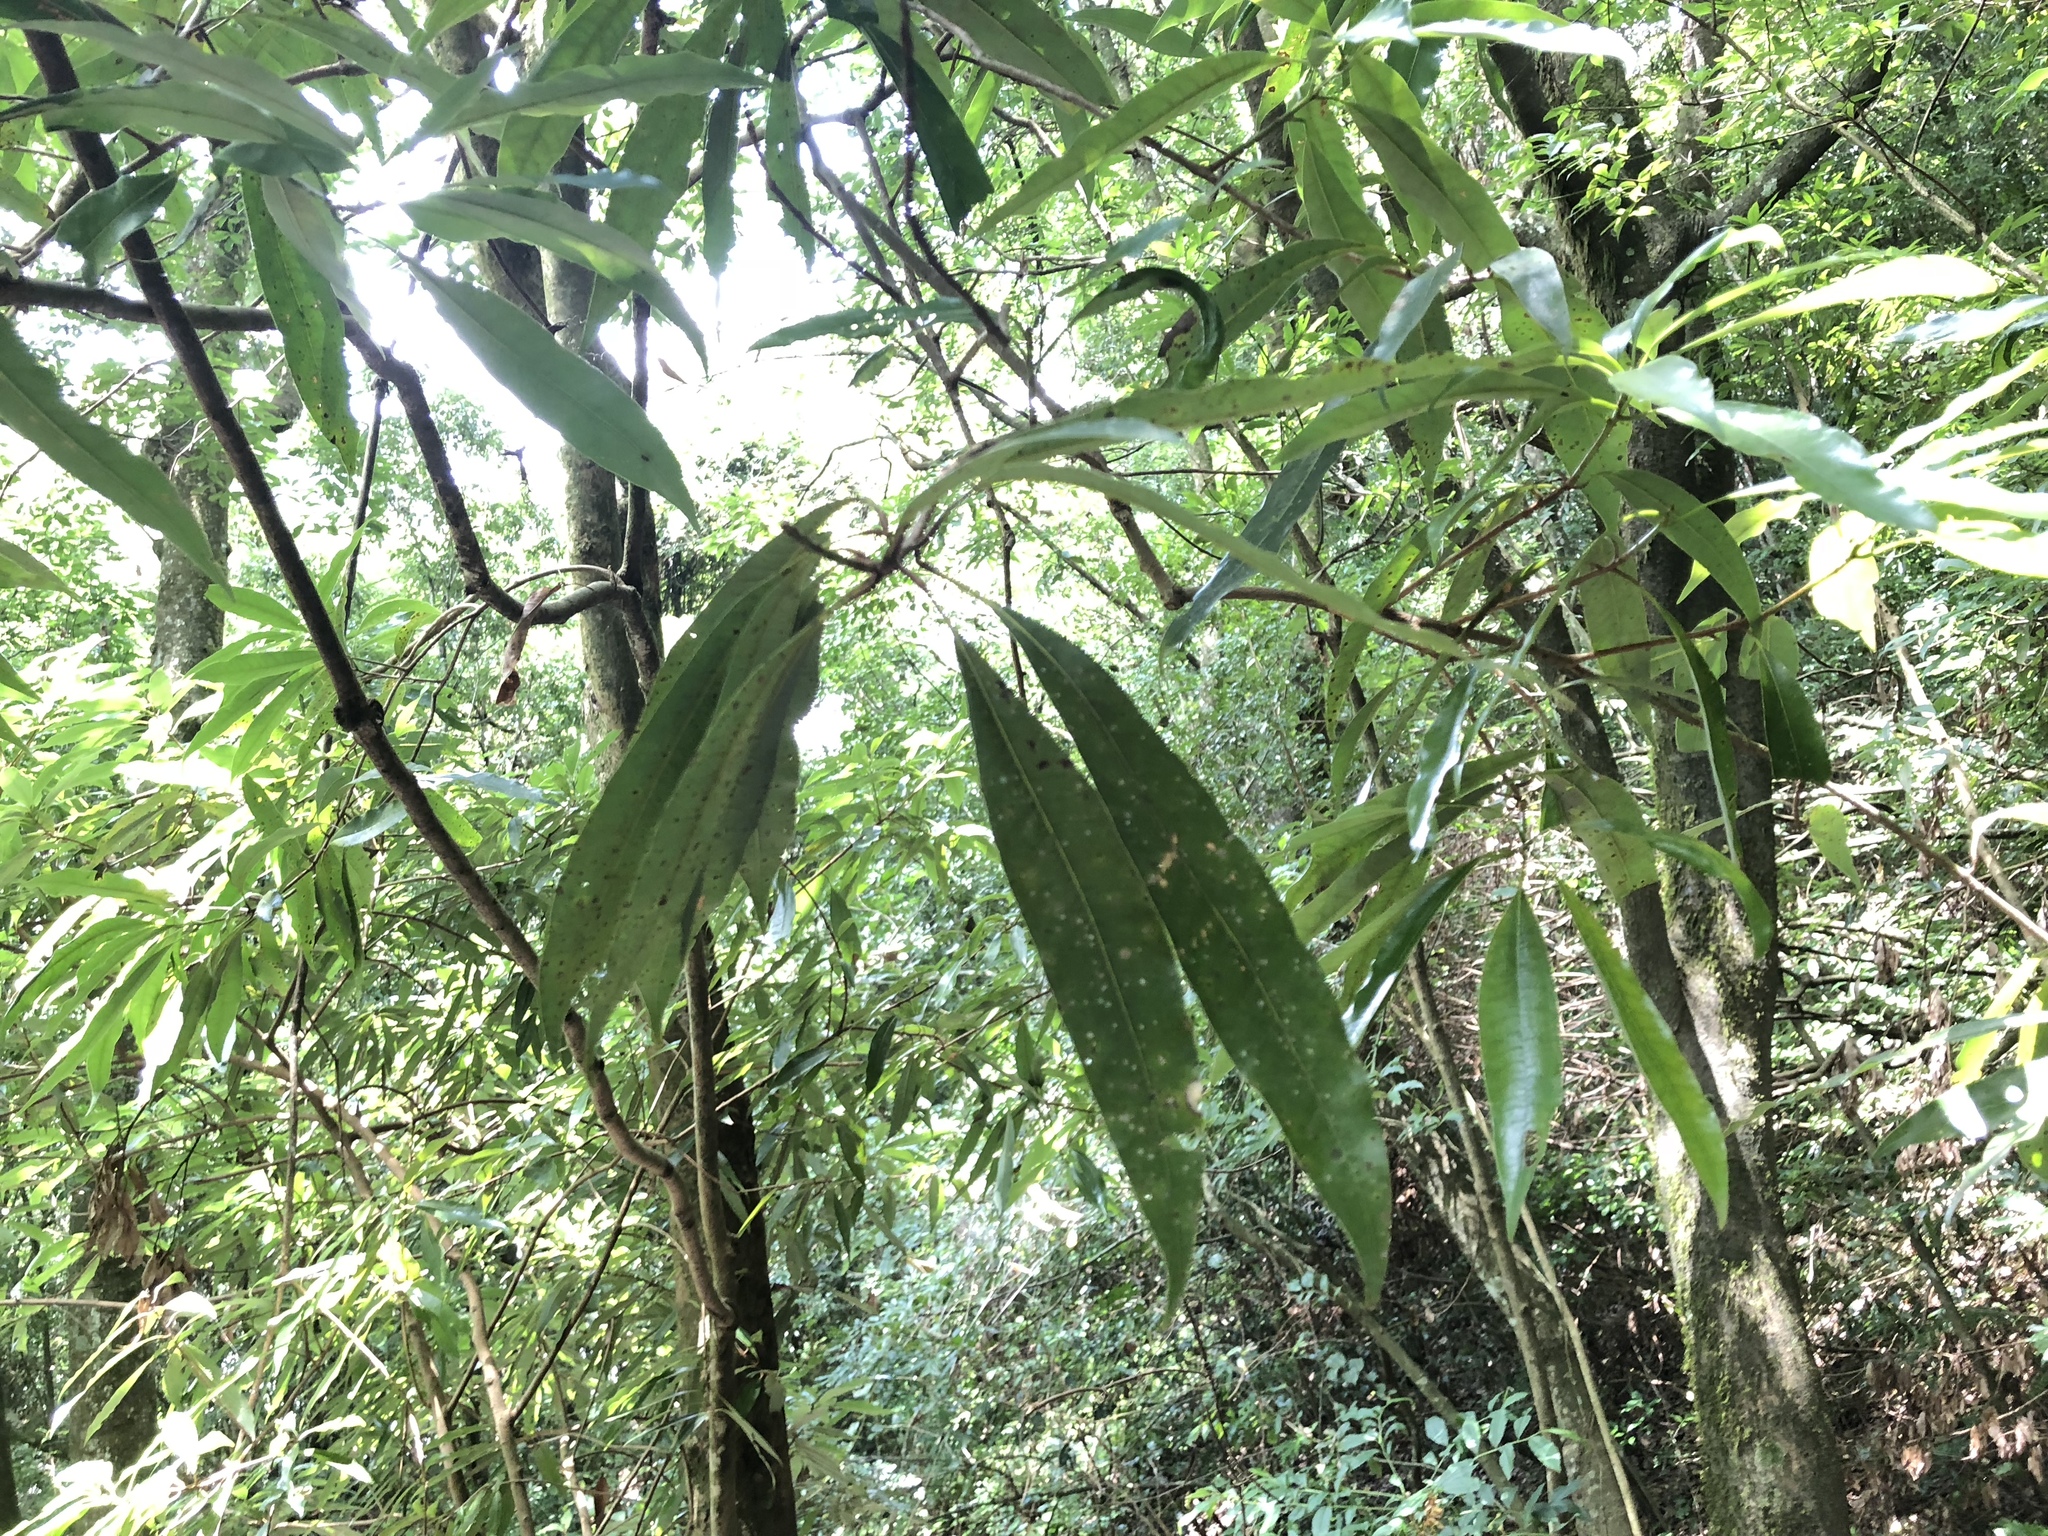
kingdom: Plantae
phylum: Tracheophyta
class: Magnoliopsida
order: Laurales
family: Lauraceae
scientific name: Lauraceae
